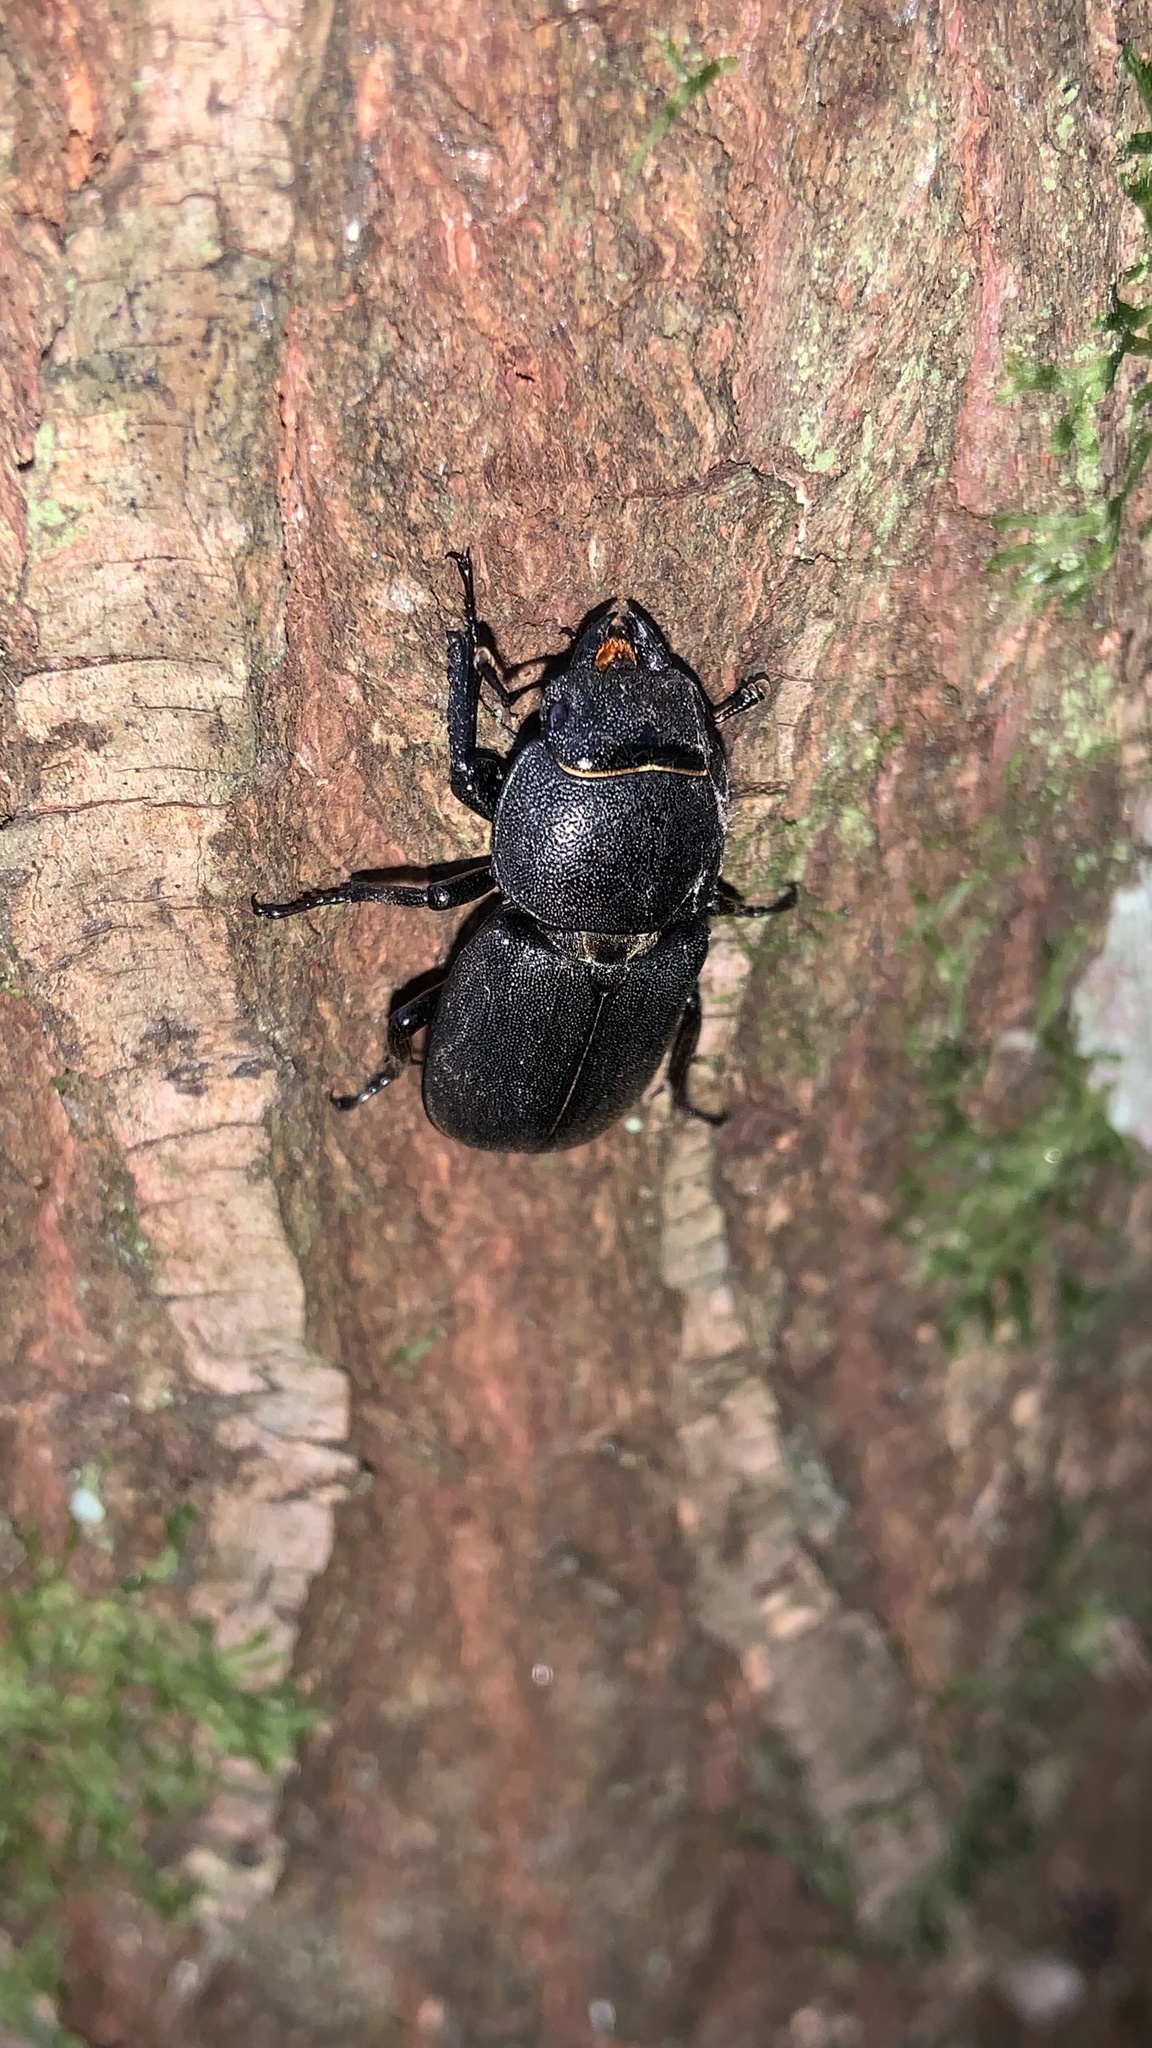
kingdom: Animalia
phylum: Arthropoda
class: Insecta
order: Coleoptera
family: Lucanidae
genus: Dorcus
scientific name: Dorcus parallelipipedus
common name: Lesser stag beetle
